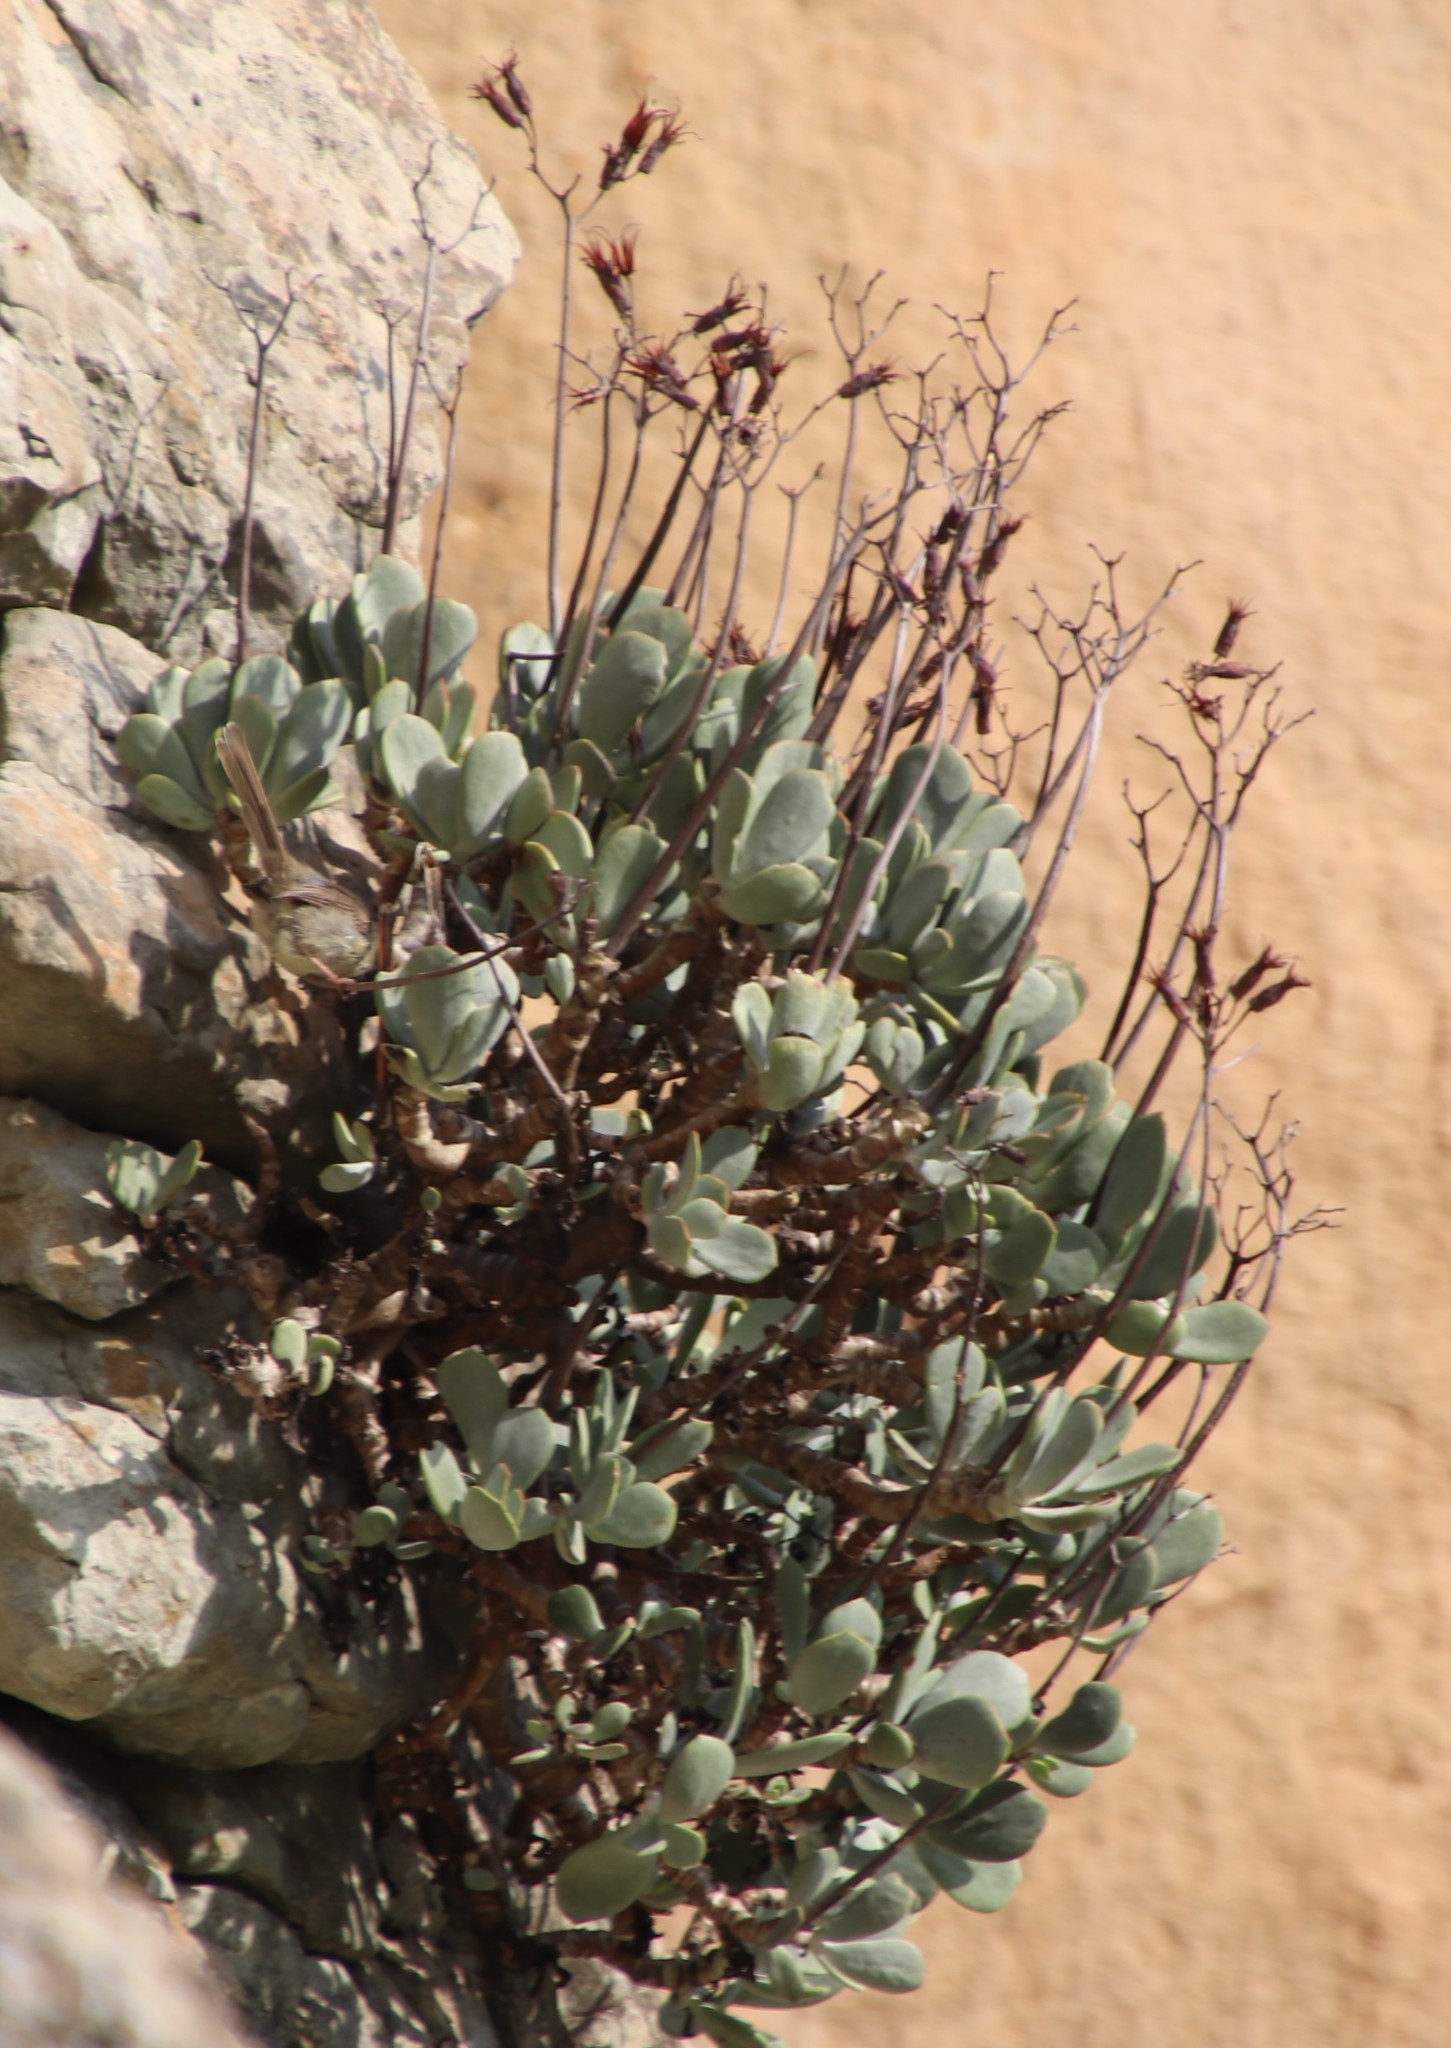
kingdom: Plantae
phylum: Tracheophyta
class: Magnoliopsida
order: Saxifragales
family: Crassulaceae
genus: Cotyledon
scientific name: Cotyledon orbiculata
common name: Pig's ear
